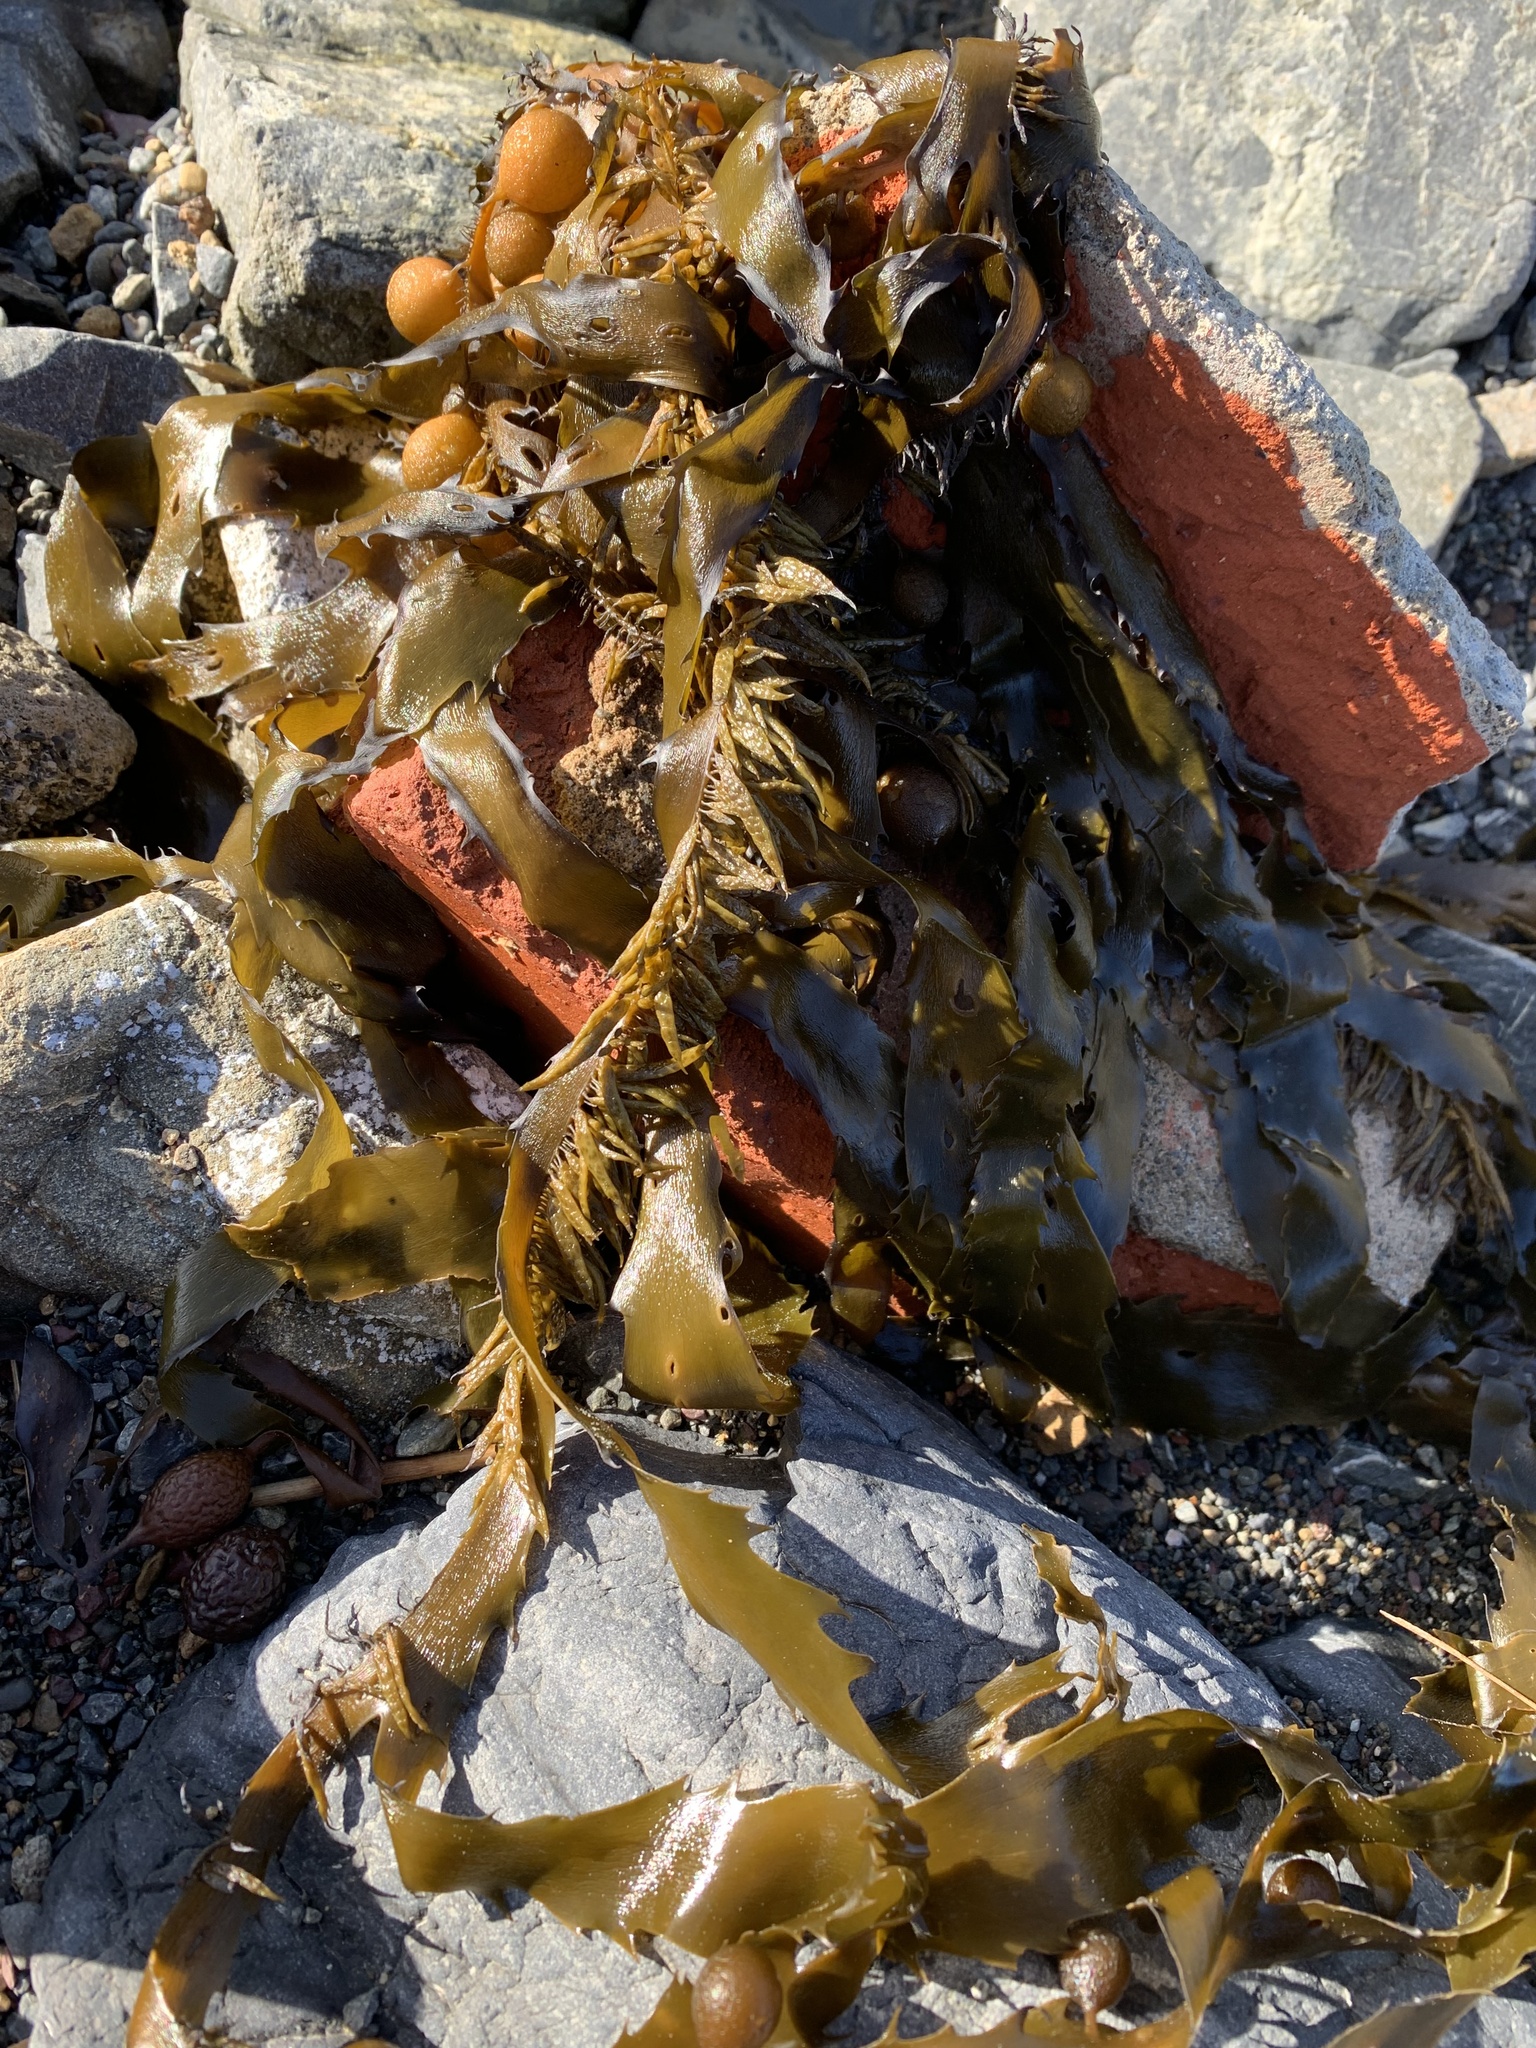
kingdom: Chromista
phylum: Ochrophyta
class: Phaeophyceae
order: Fucales
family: Seirococcaceae
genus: Marginariella
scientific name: Marginariella urvilliana
